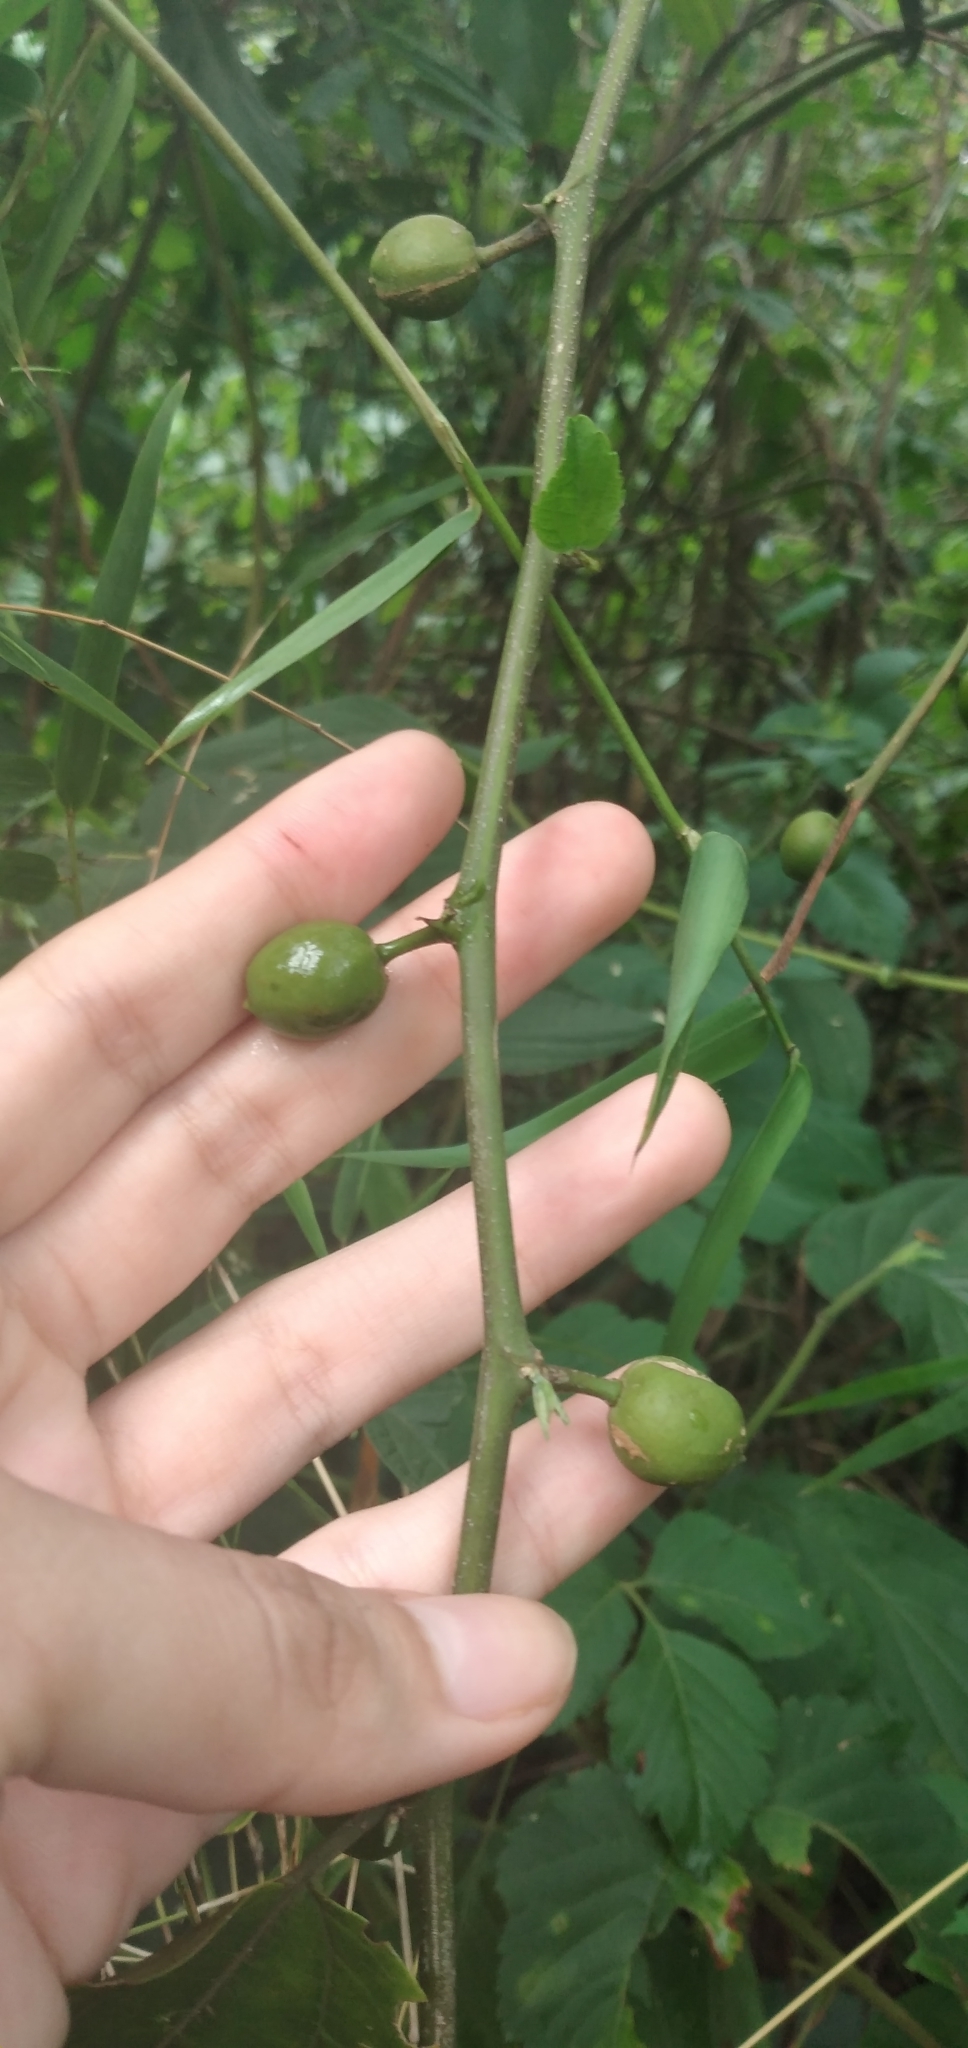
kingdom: Plantae
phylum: Tracheophyta
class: Magnoliopsida
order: Rosales
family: Cannabaceae
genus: Celtis
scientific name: Celtis iguanaea
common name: Iguana hackberry
